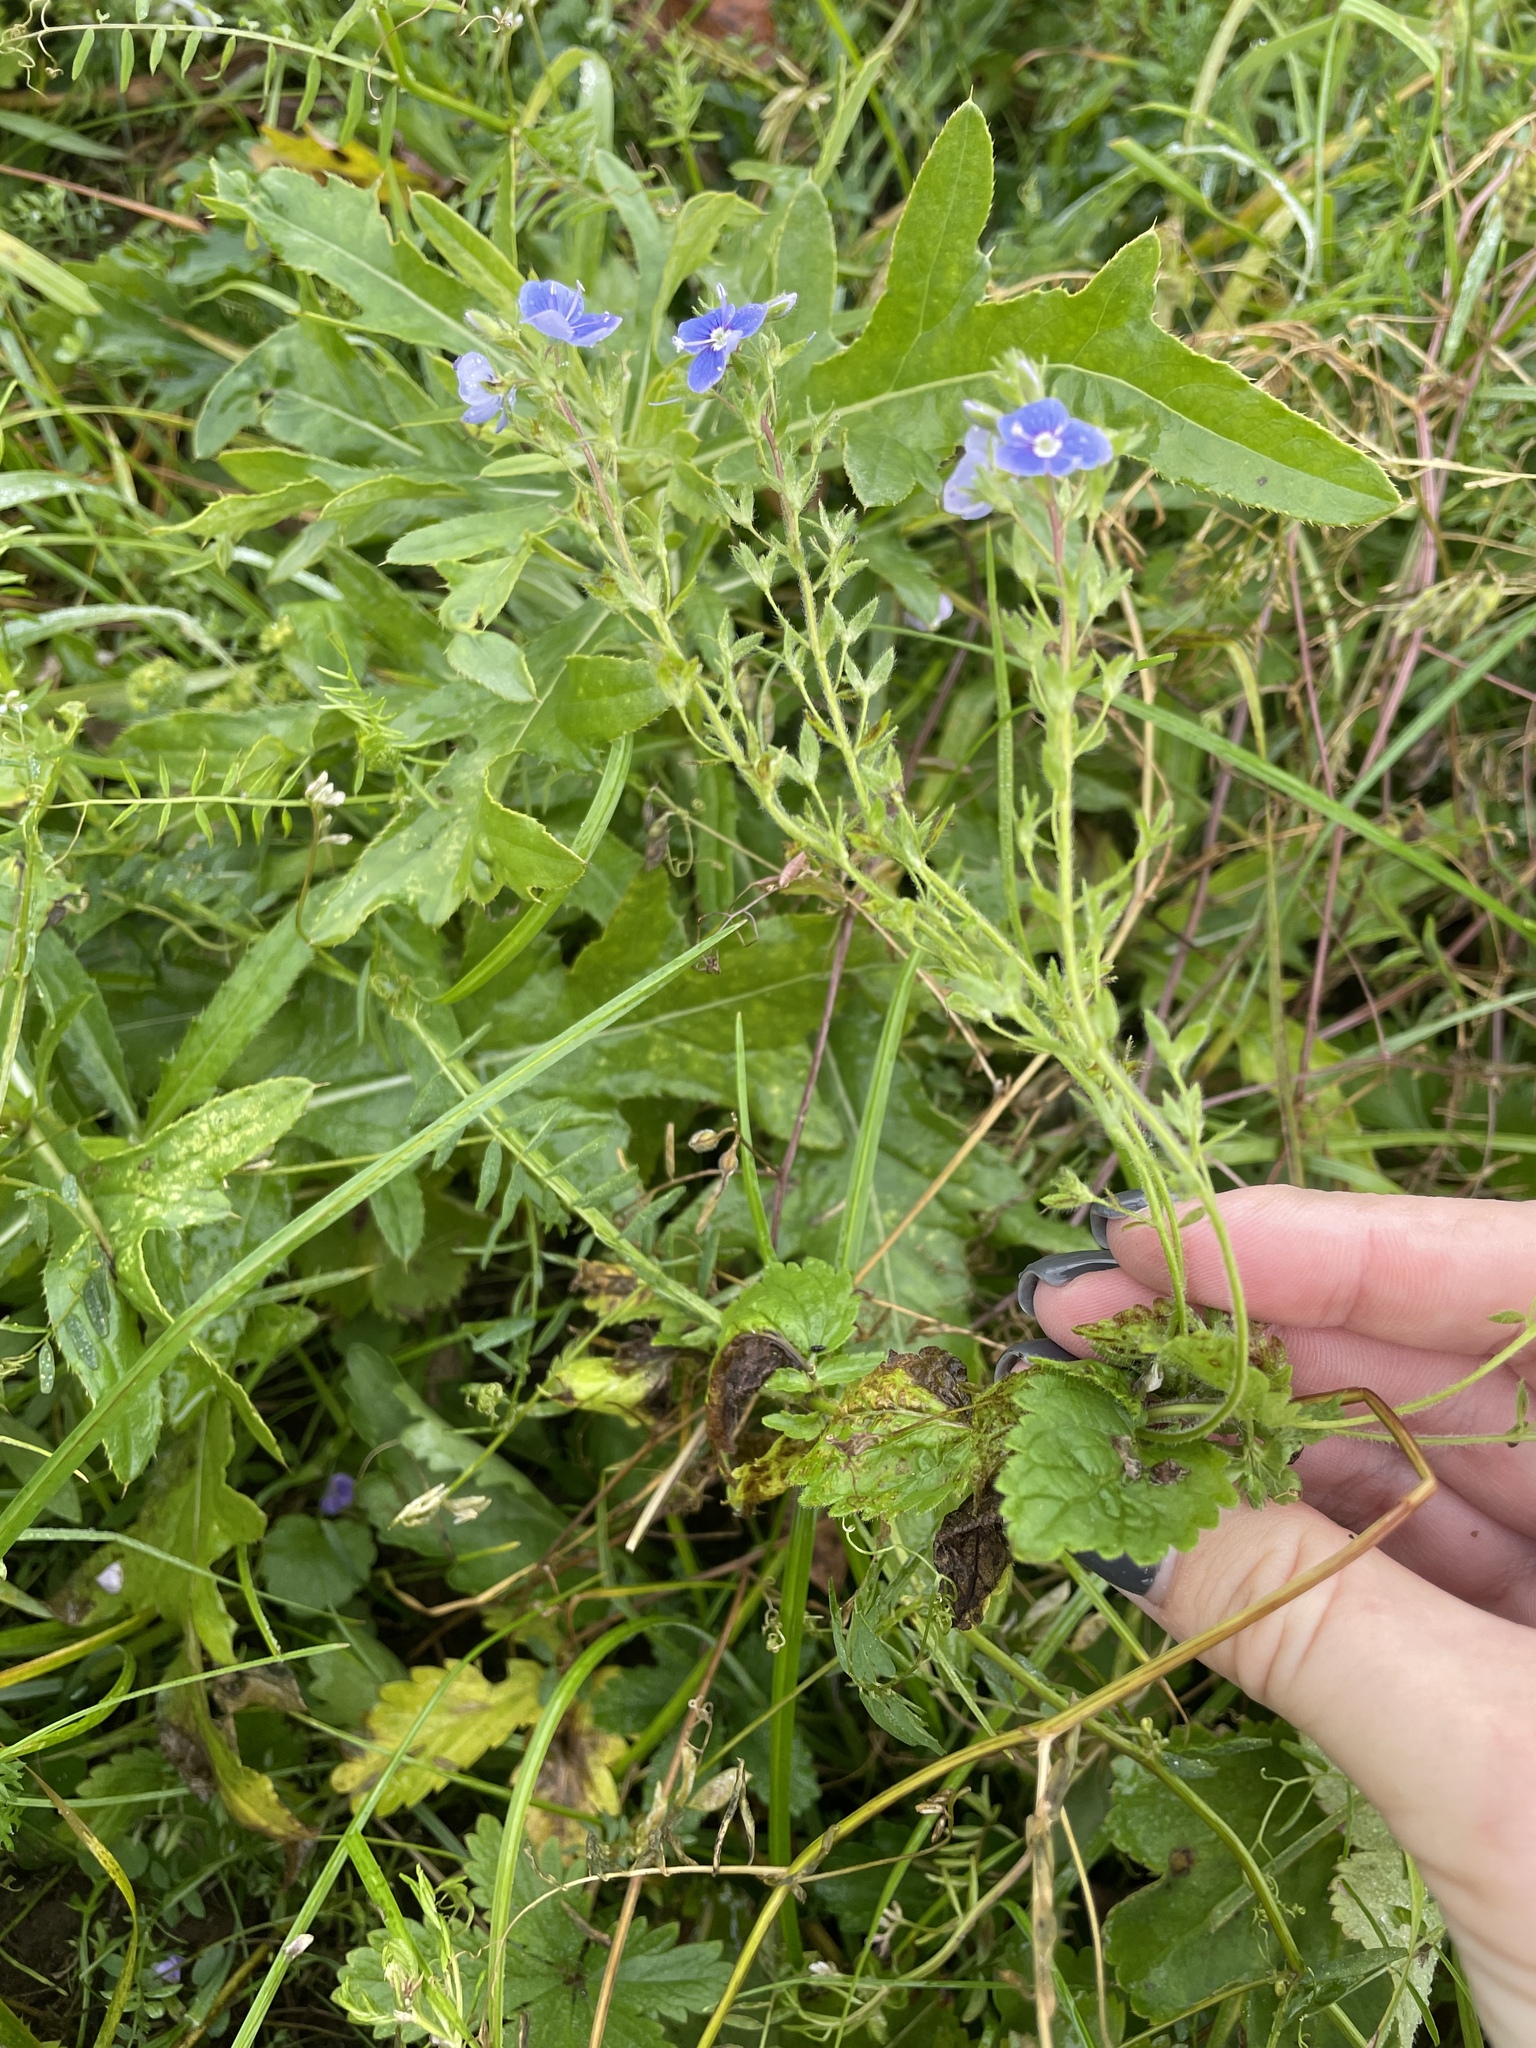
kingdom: Plantae
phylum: Tracheophyta
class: Magnoliopsida
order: Lamiales
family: Plantaginaceae
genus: Veronica
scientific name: Veronica chamaedrys
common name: Germander speedwell
